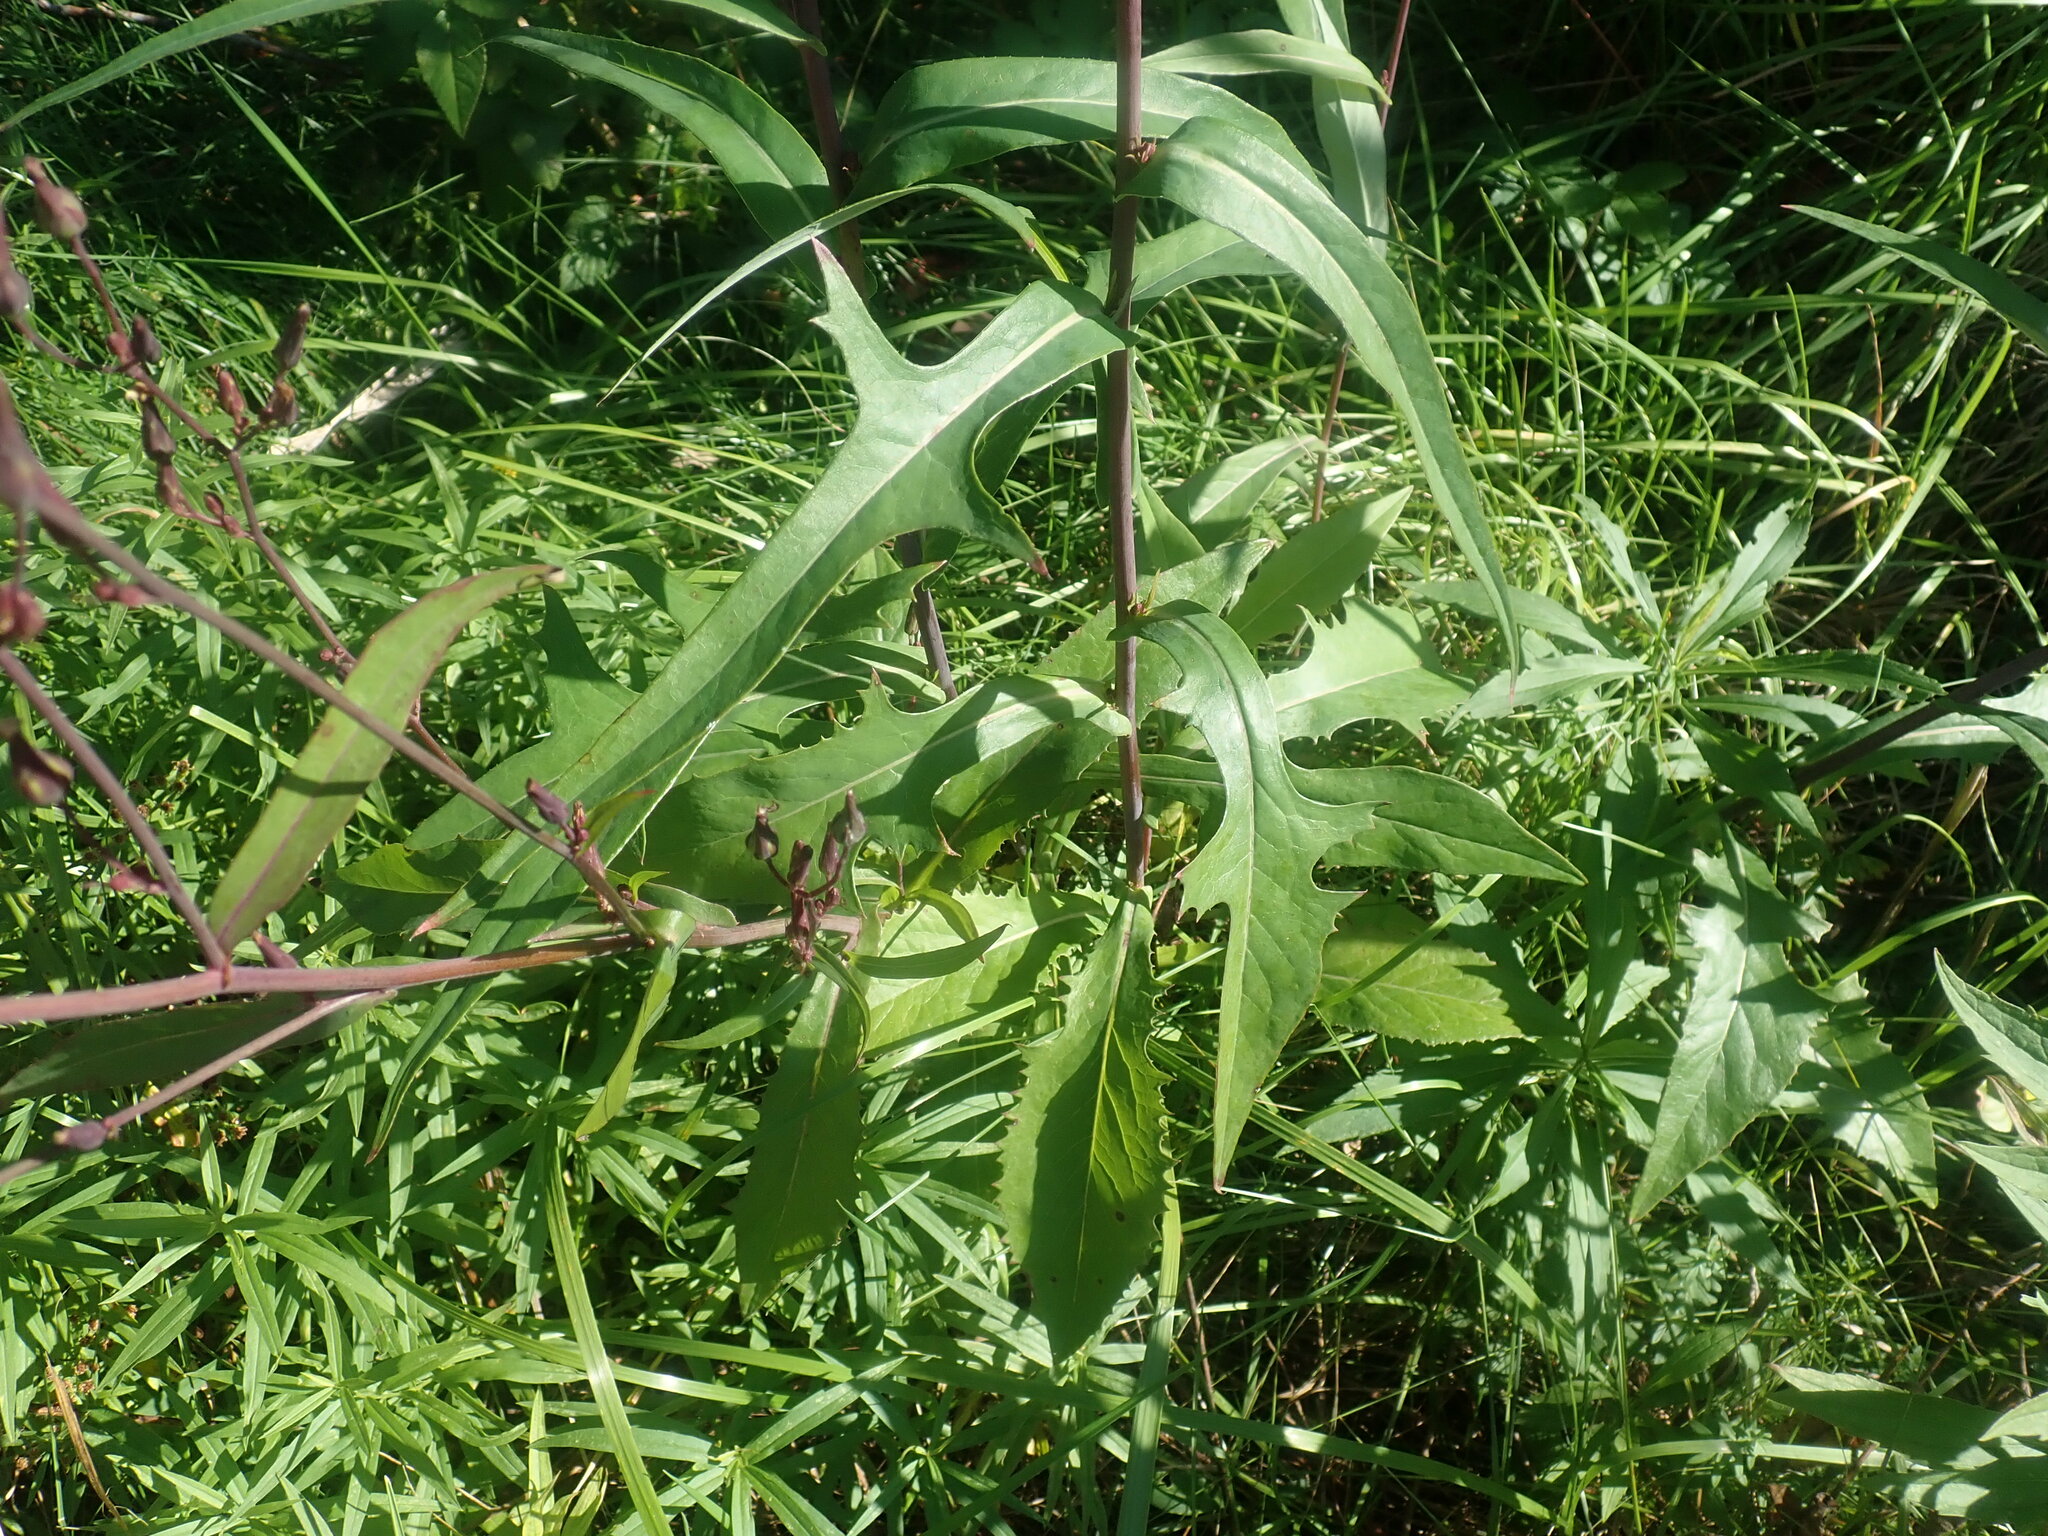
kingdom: Plantae
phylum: Tracheophyta
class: Magnoliopsida
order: Asterales
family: Asteraceae
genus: Lactuca
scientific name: Lactuca canadensis
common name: Canada lettuce
